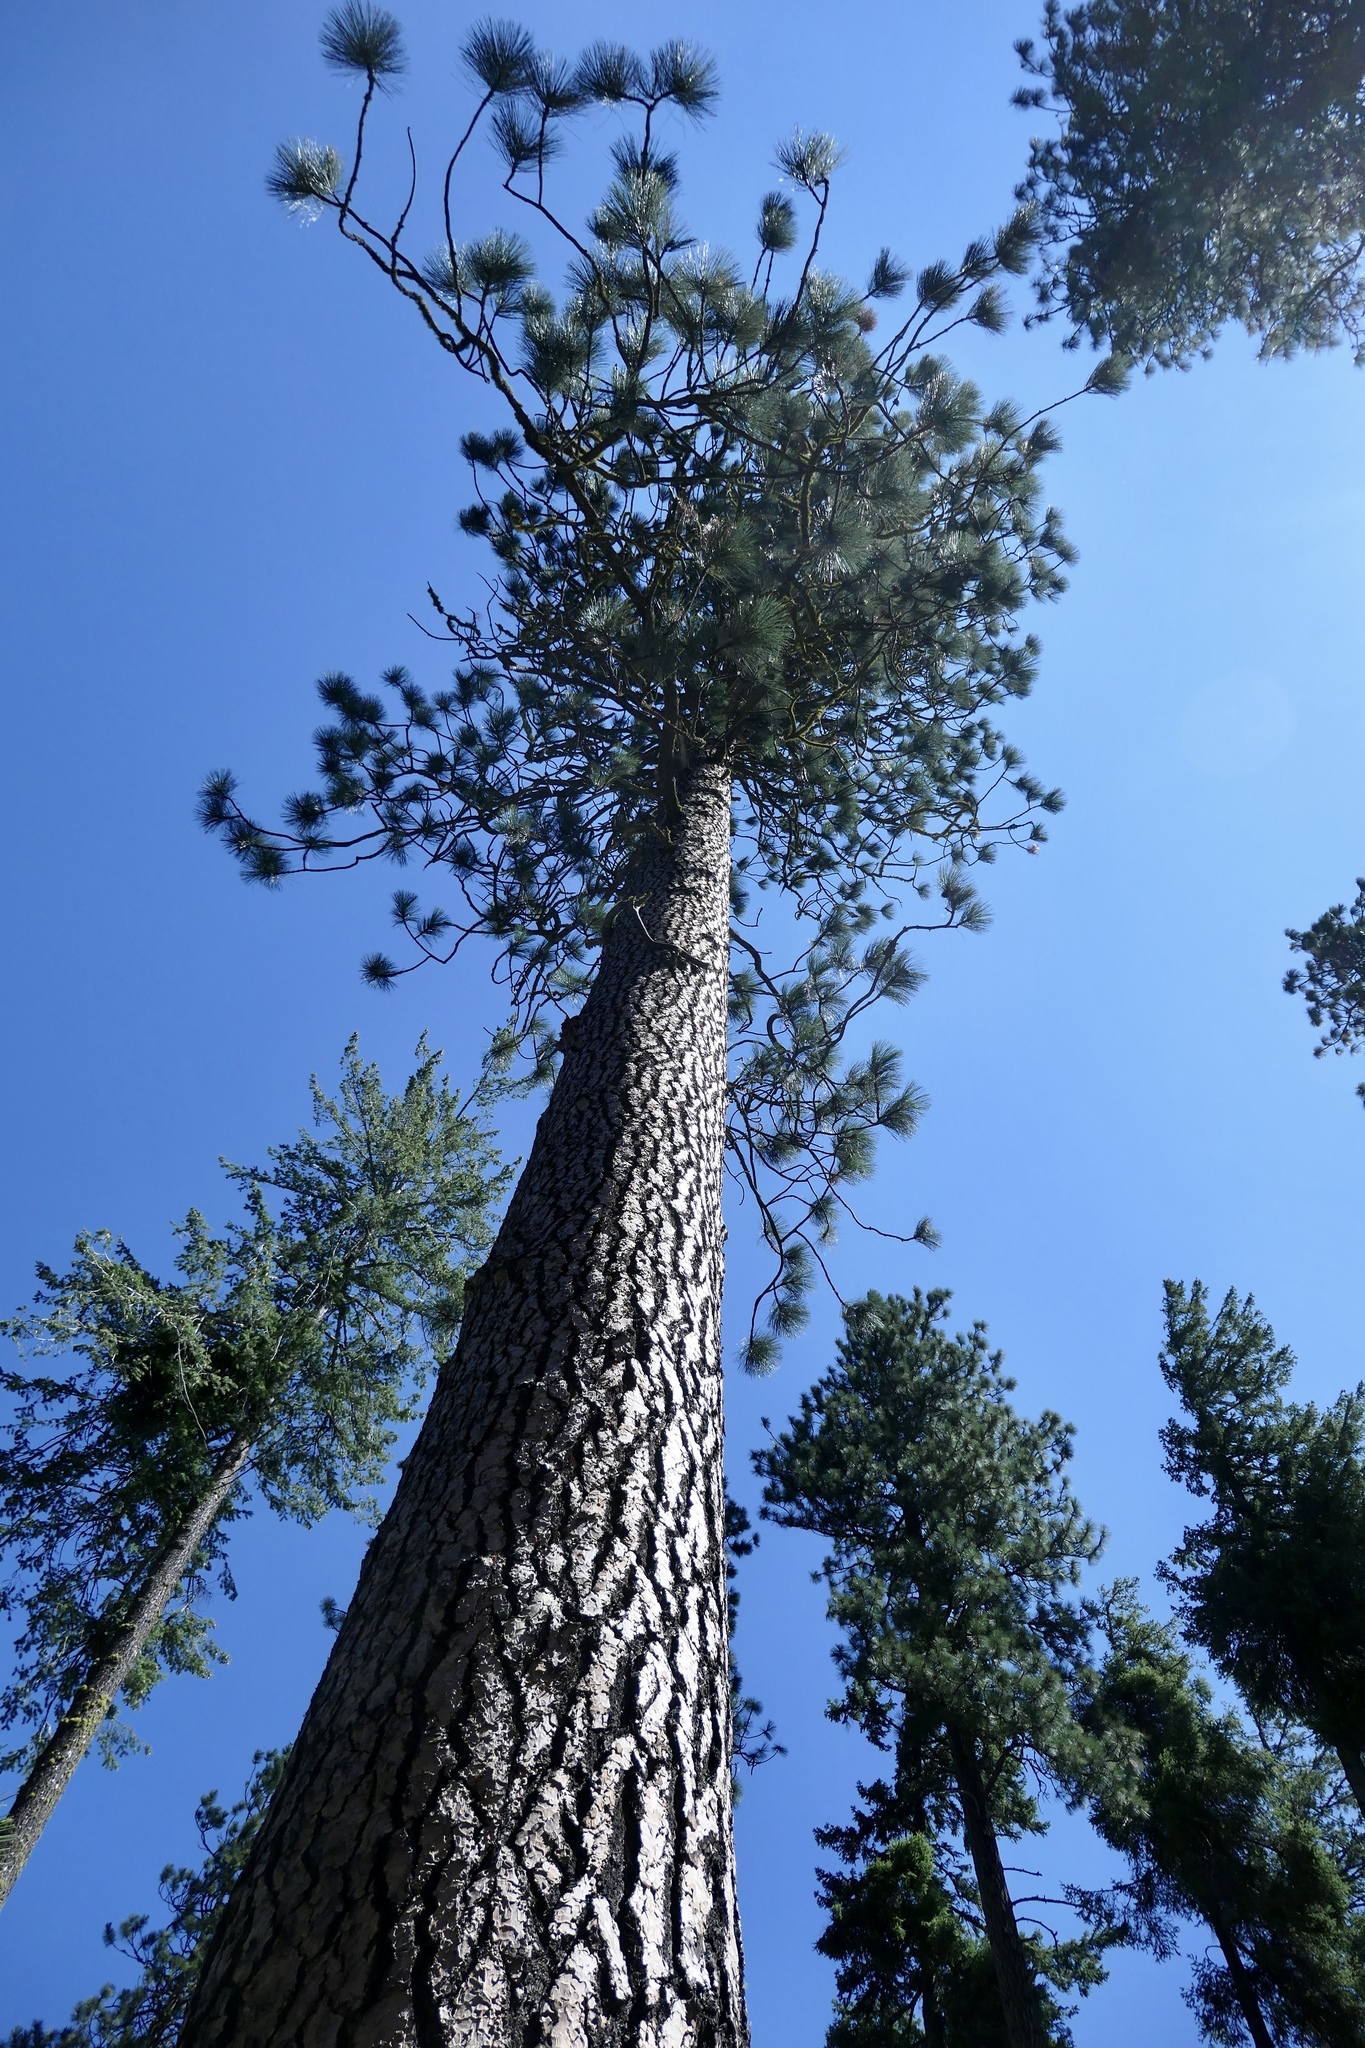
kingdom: Plantae
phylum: Tracheophyta
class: Pinopsida
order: Pinales
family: Pinaceae
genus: Pinus
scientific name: Pinus ponderosa
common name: Western yellow-pine
